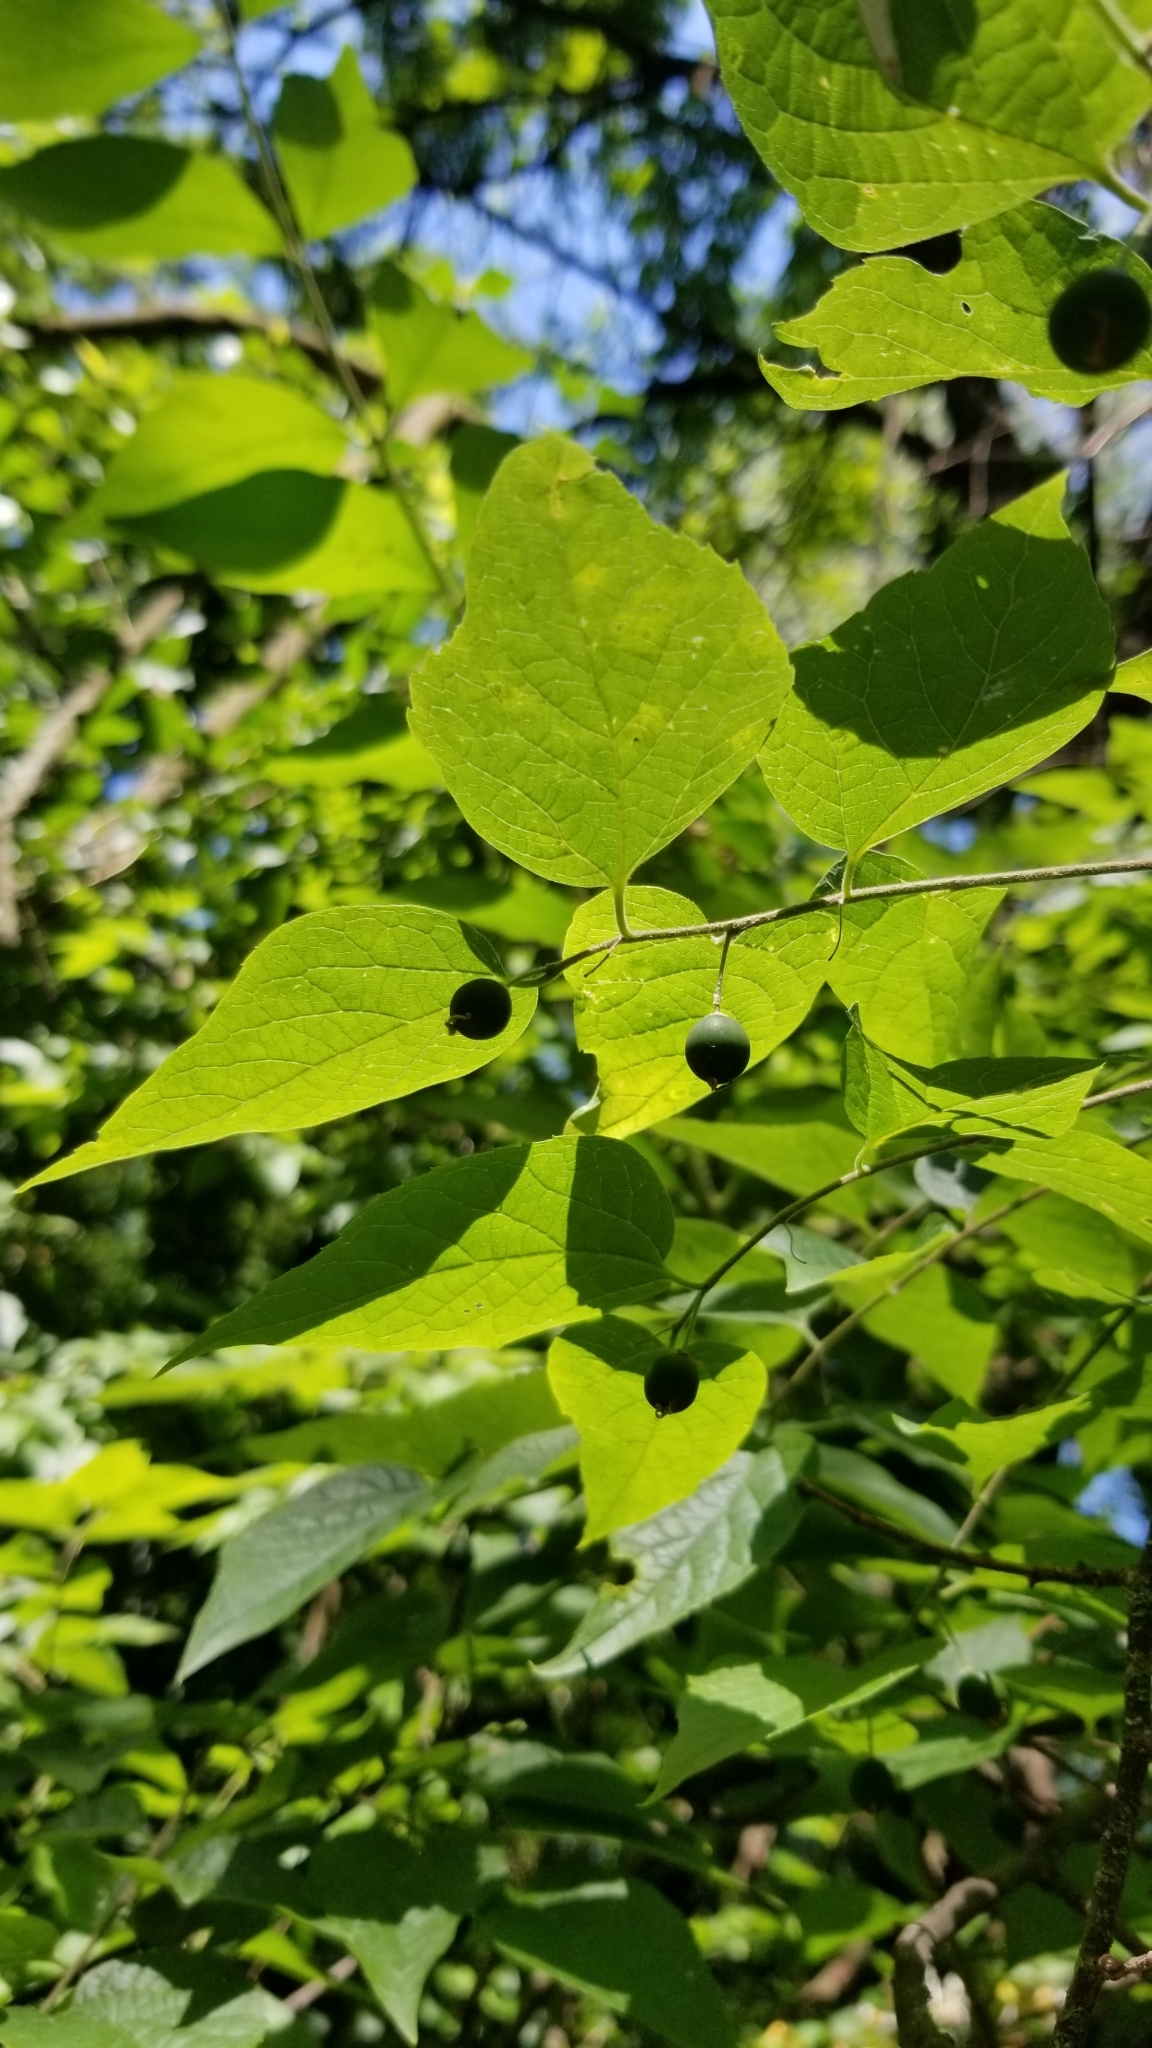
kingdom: Plantae
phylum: Tracheophyta
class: Magnoliopsida
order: Rosales
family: Cannabaceae
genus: Celtis
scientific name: Celtis tenuifolia
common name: Georgia hackberry
